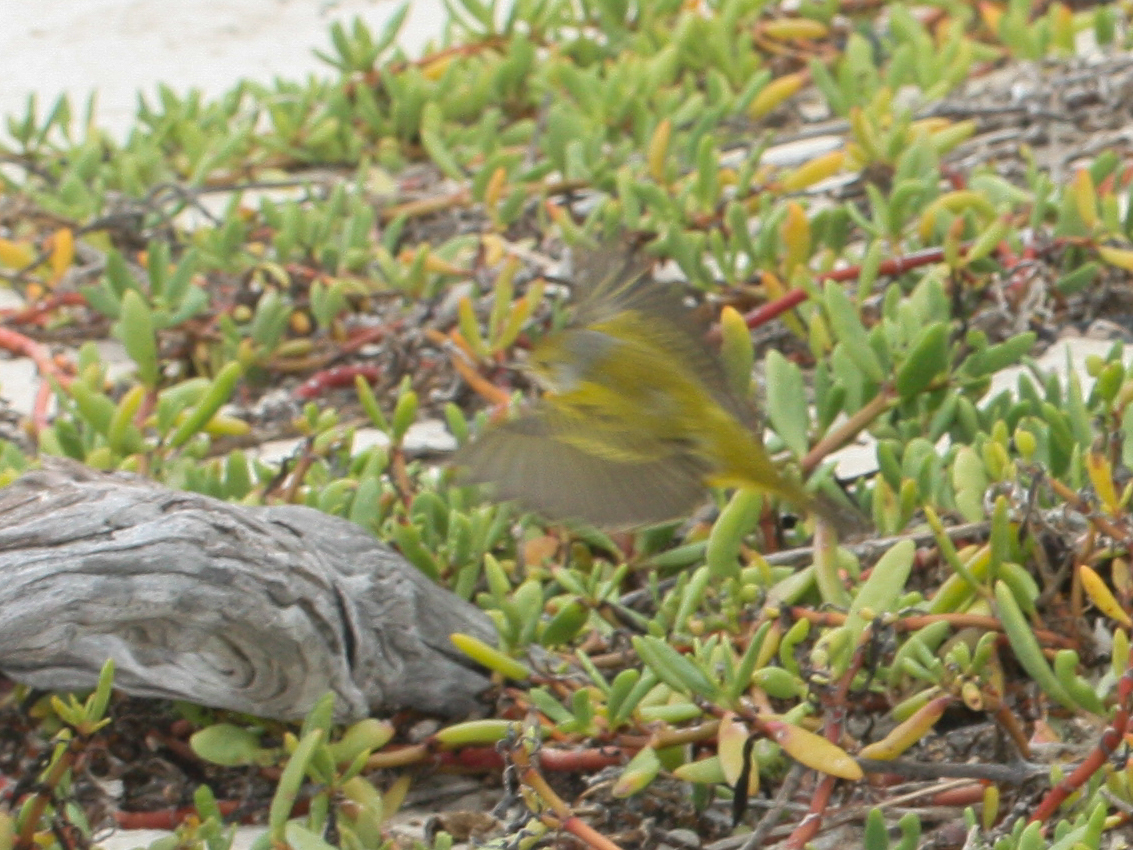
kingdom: Animalia
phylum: Chordata
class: Aves
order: Passeriformes
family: Parulidae
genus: Setophaga
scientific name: Setophaga petechia
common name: Yellow warbler
